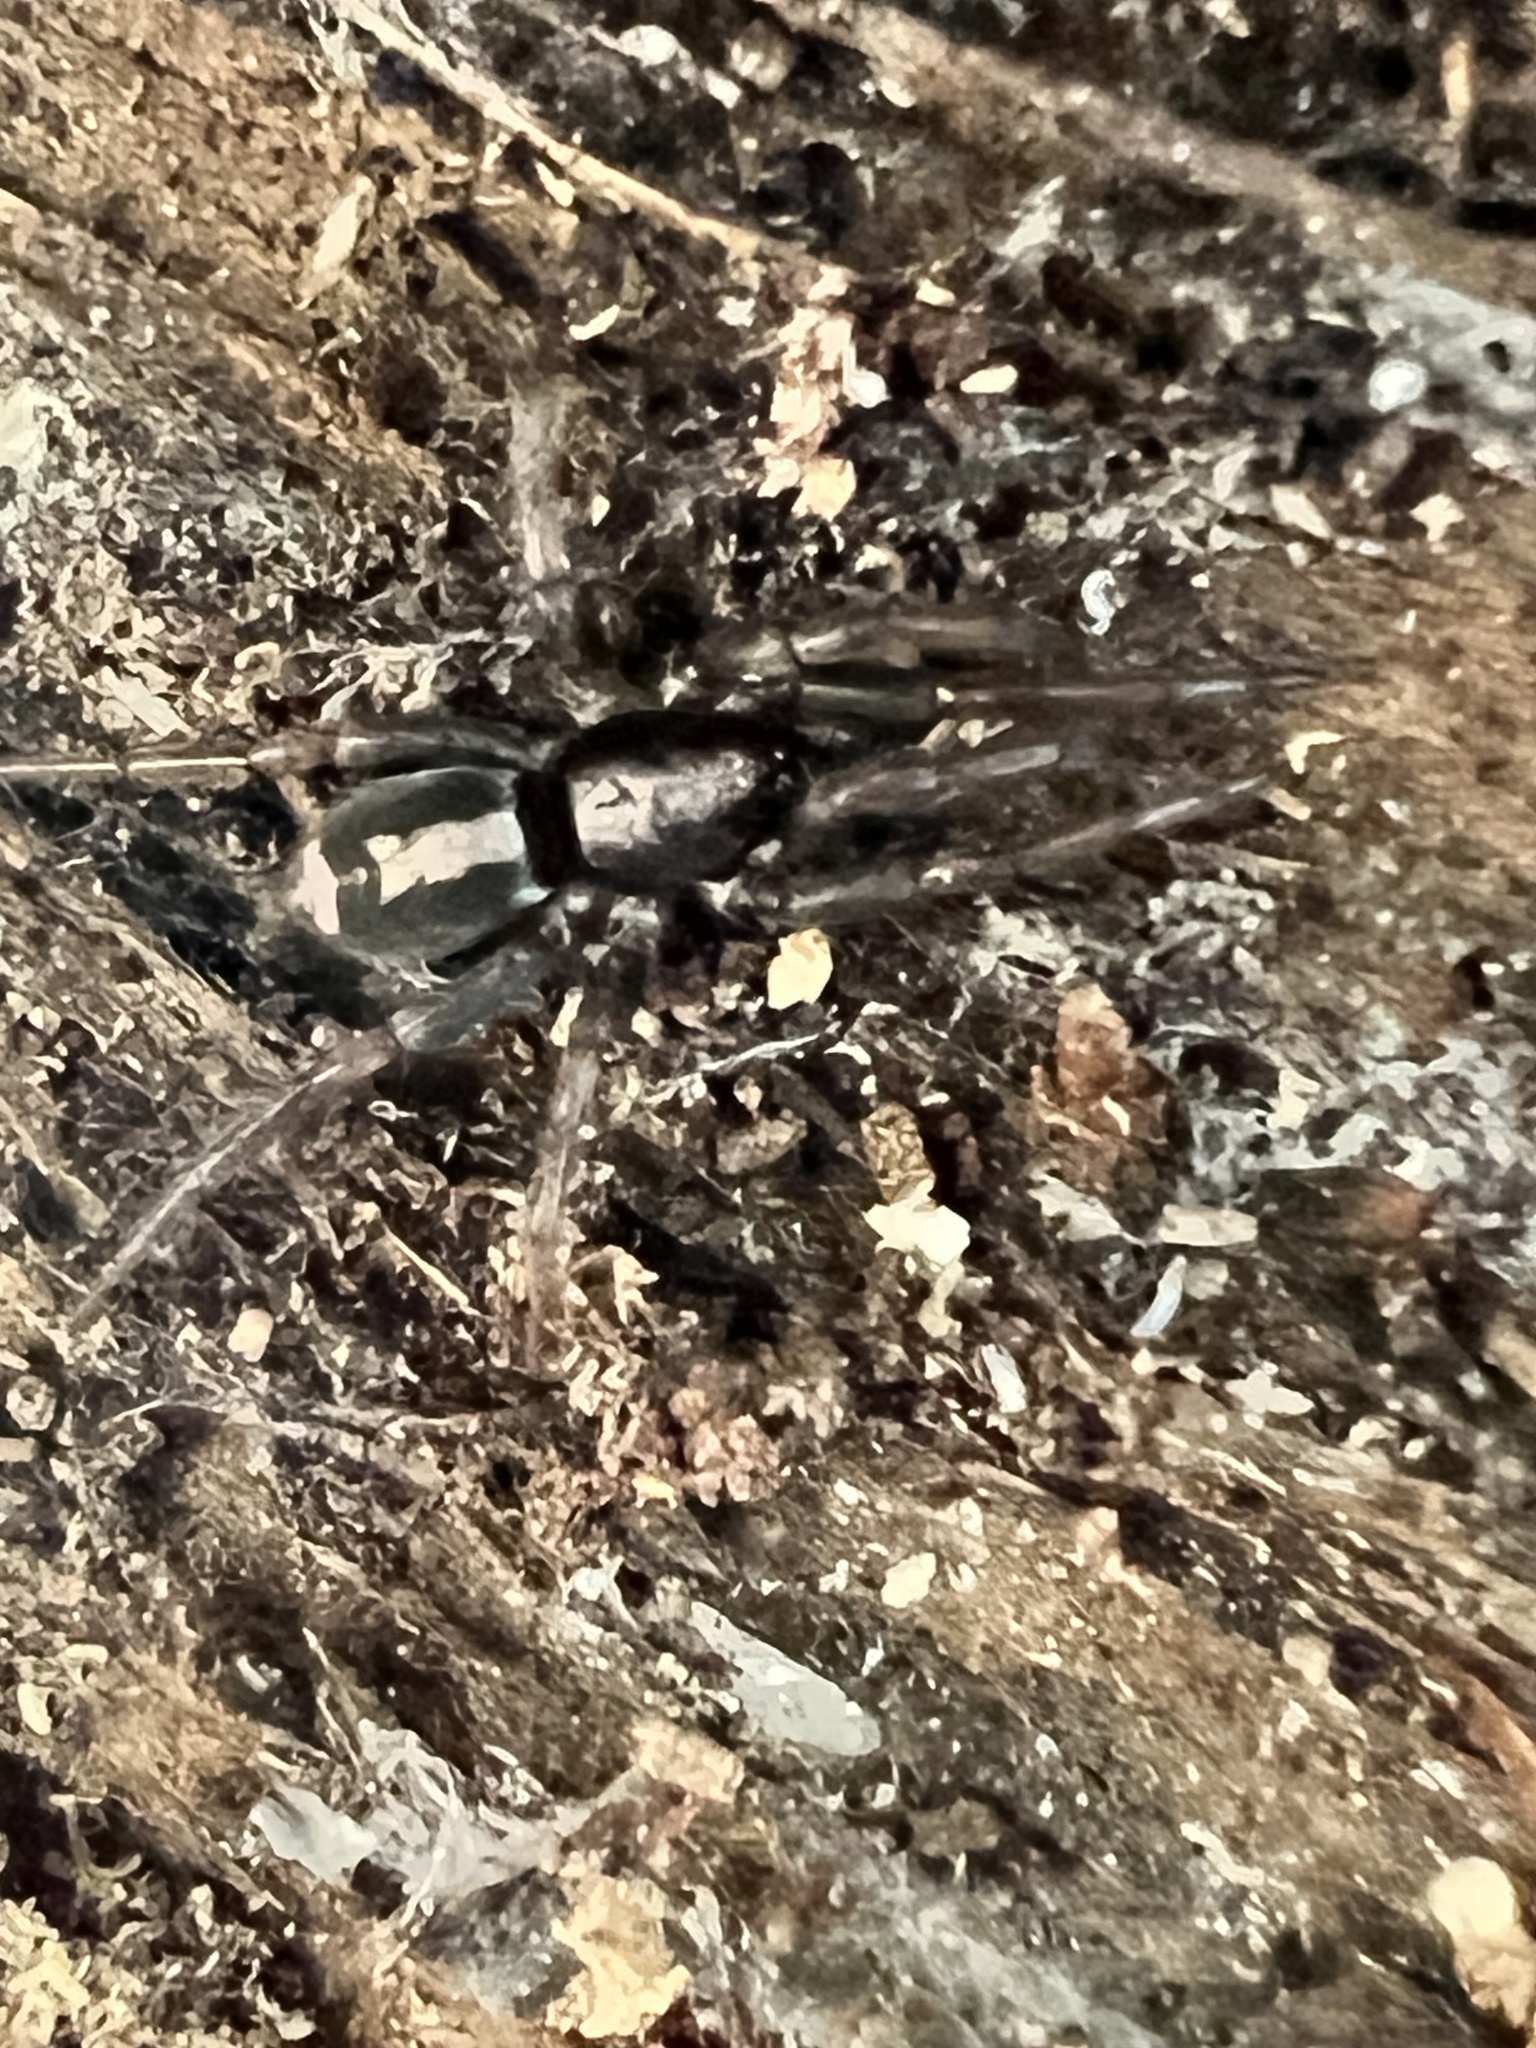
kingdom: Animalia
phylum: Arthropoda
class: Arachnida
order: Araneae
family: Gnaphosidae
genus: Herpyllus
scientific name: Herpyllus ecclesiasticus
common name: Eastern parson spider
